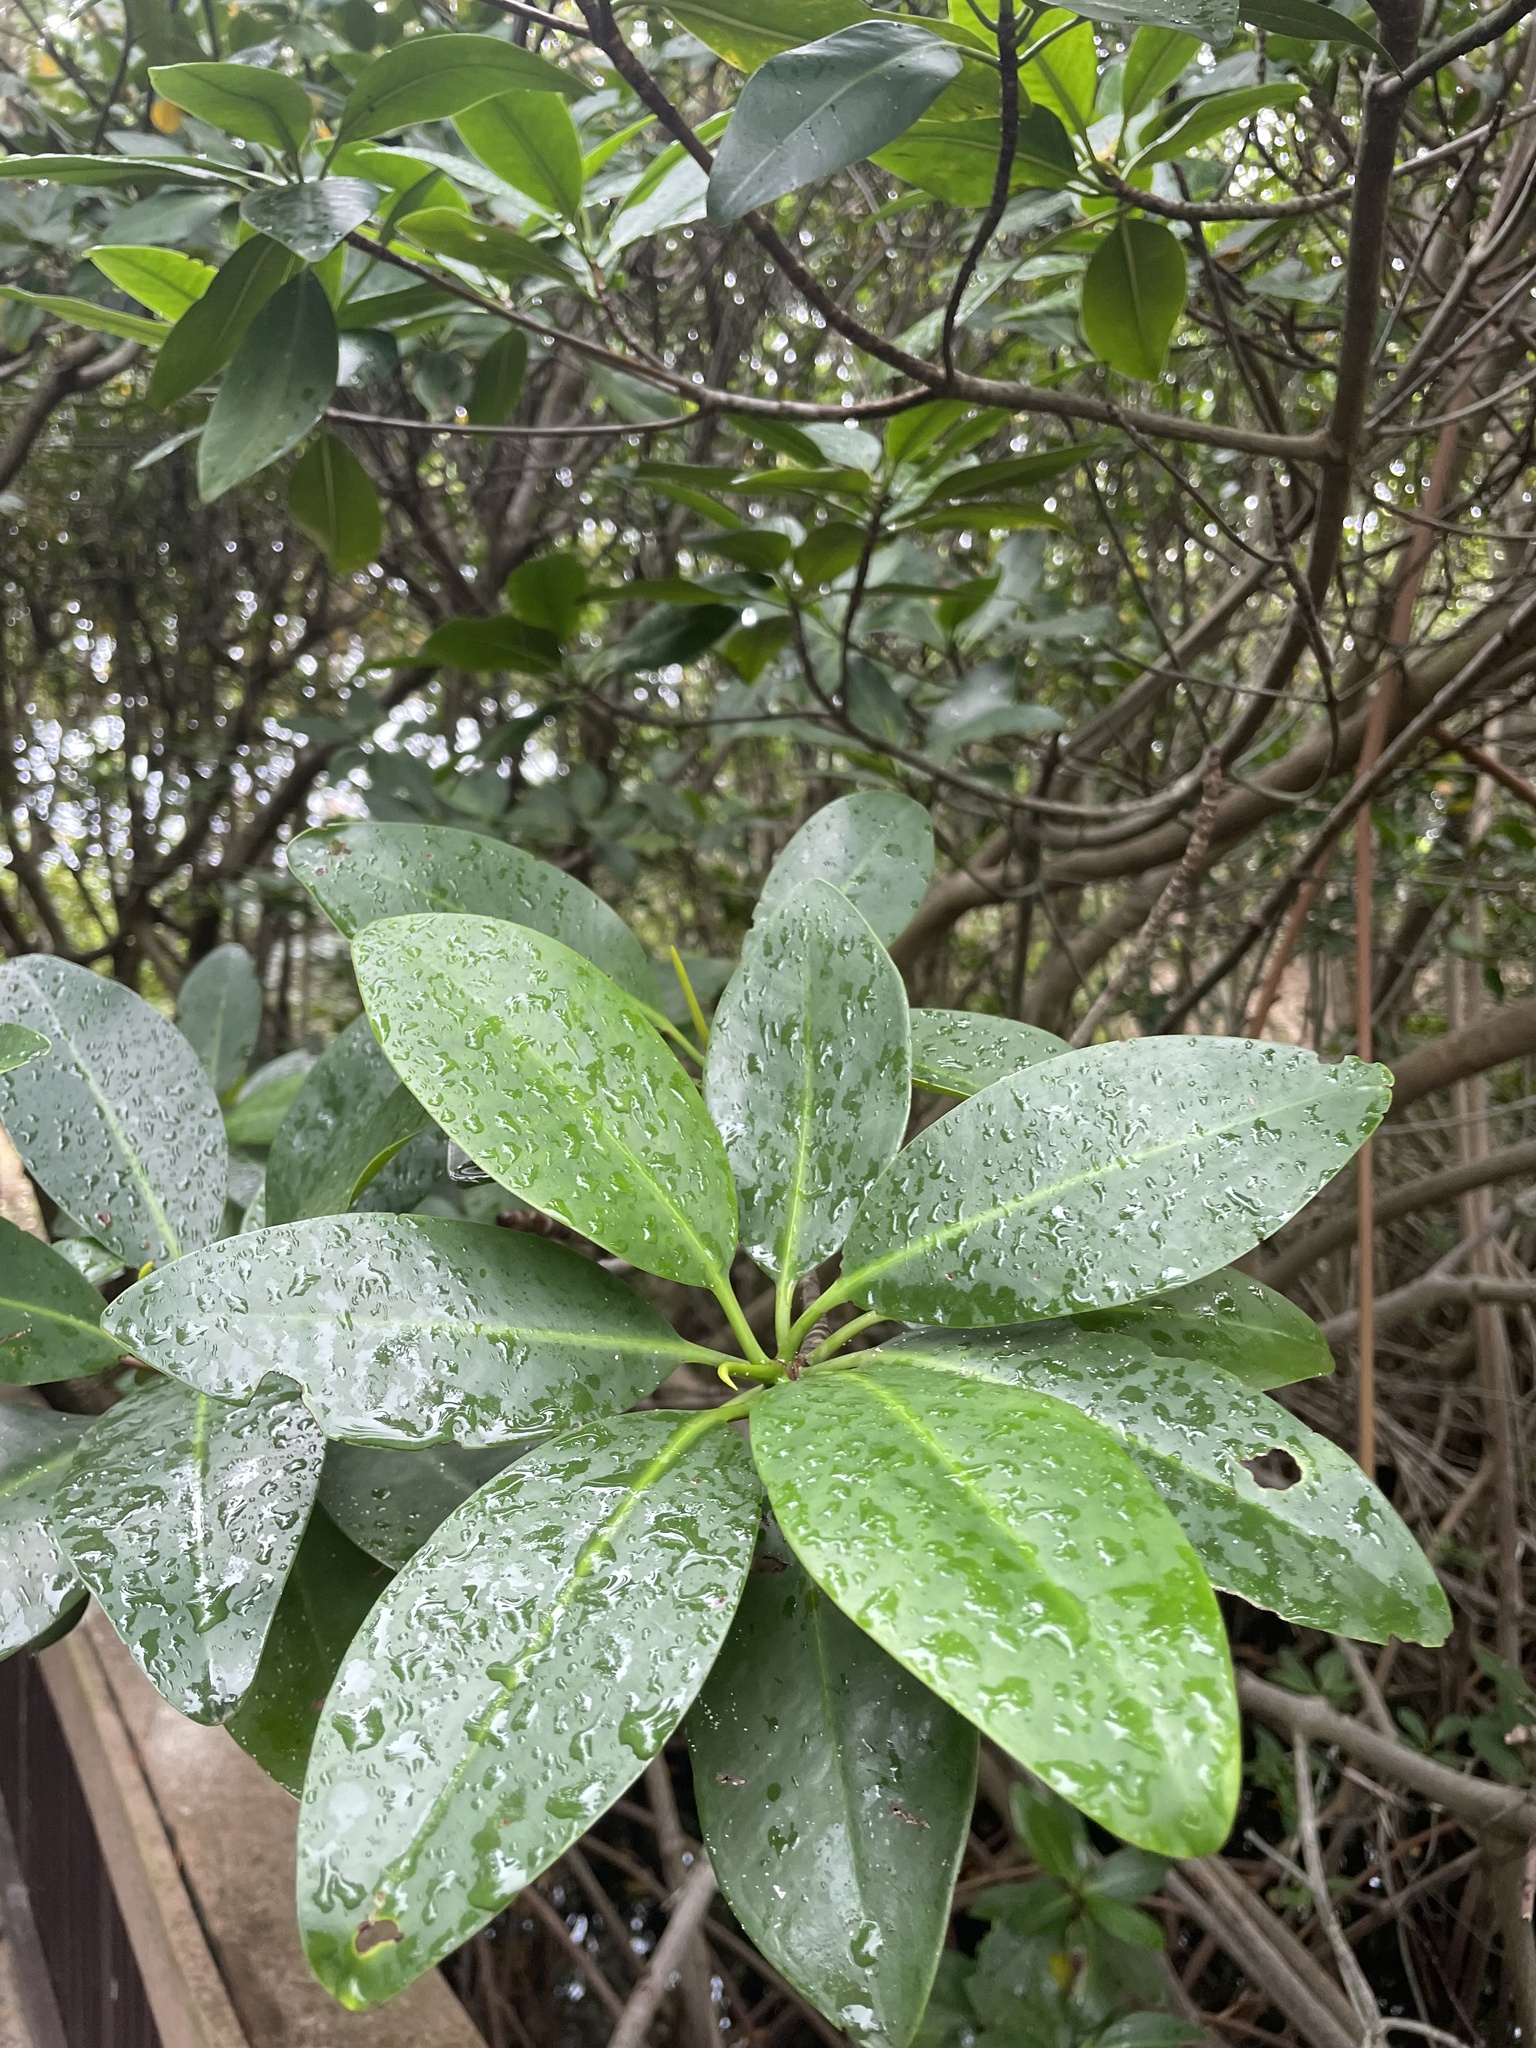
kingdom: Plantae
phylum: Tracheophyta
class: Magnoliopsida
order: Malpighiales
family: Rhizophoraceae
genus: Rhizophora
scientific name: Rhizophora mangle
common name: Red mangrove
